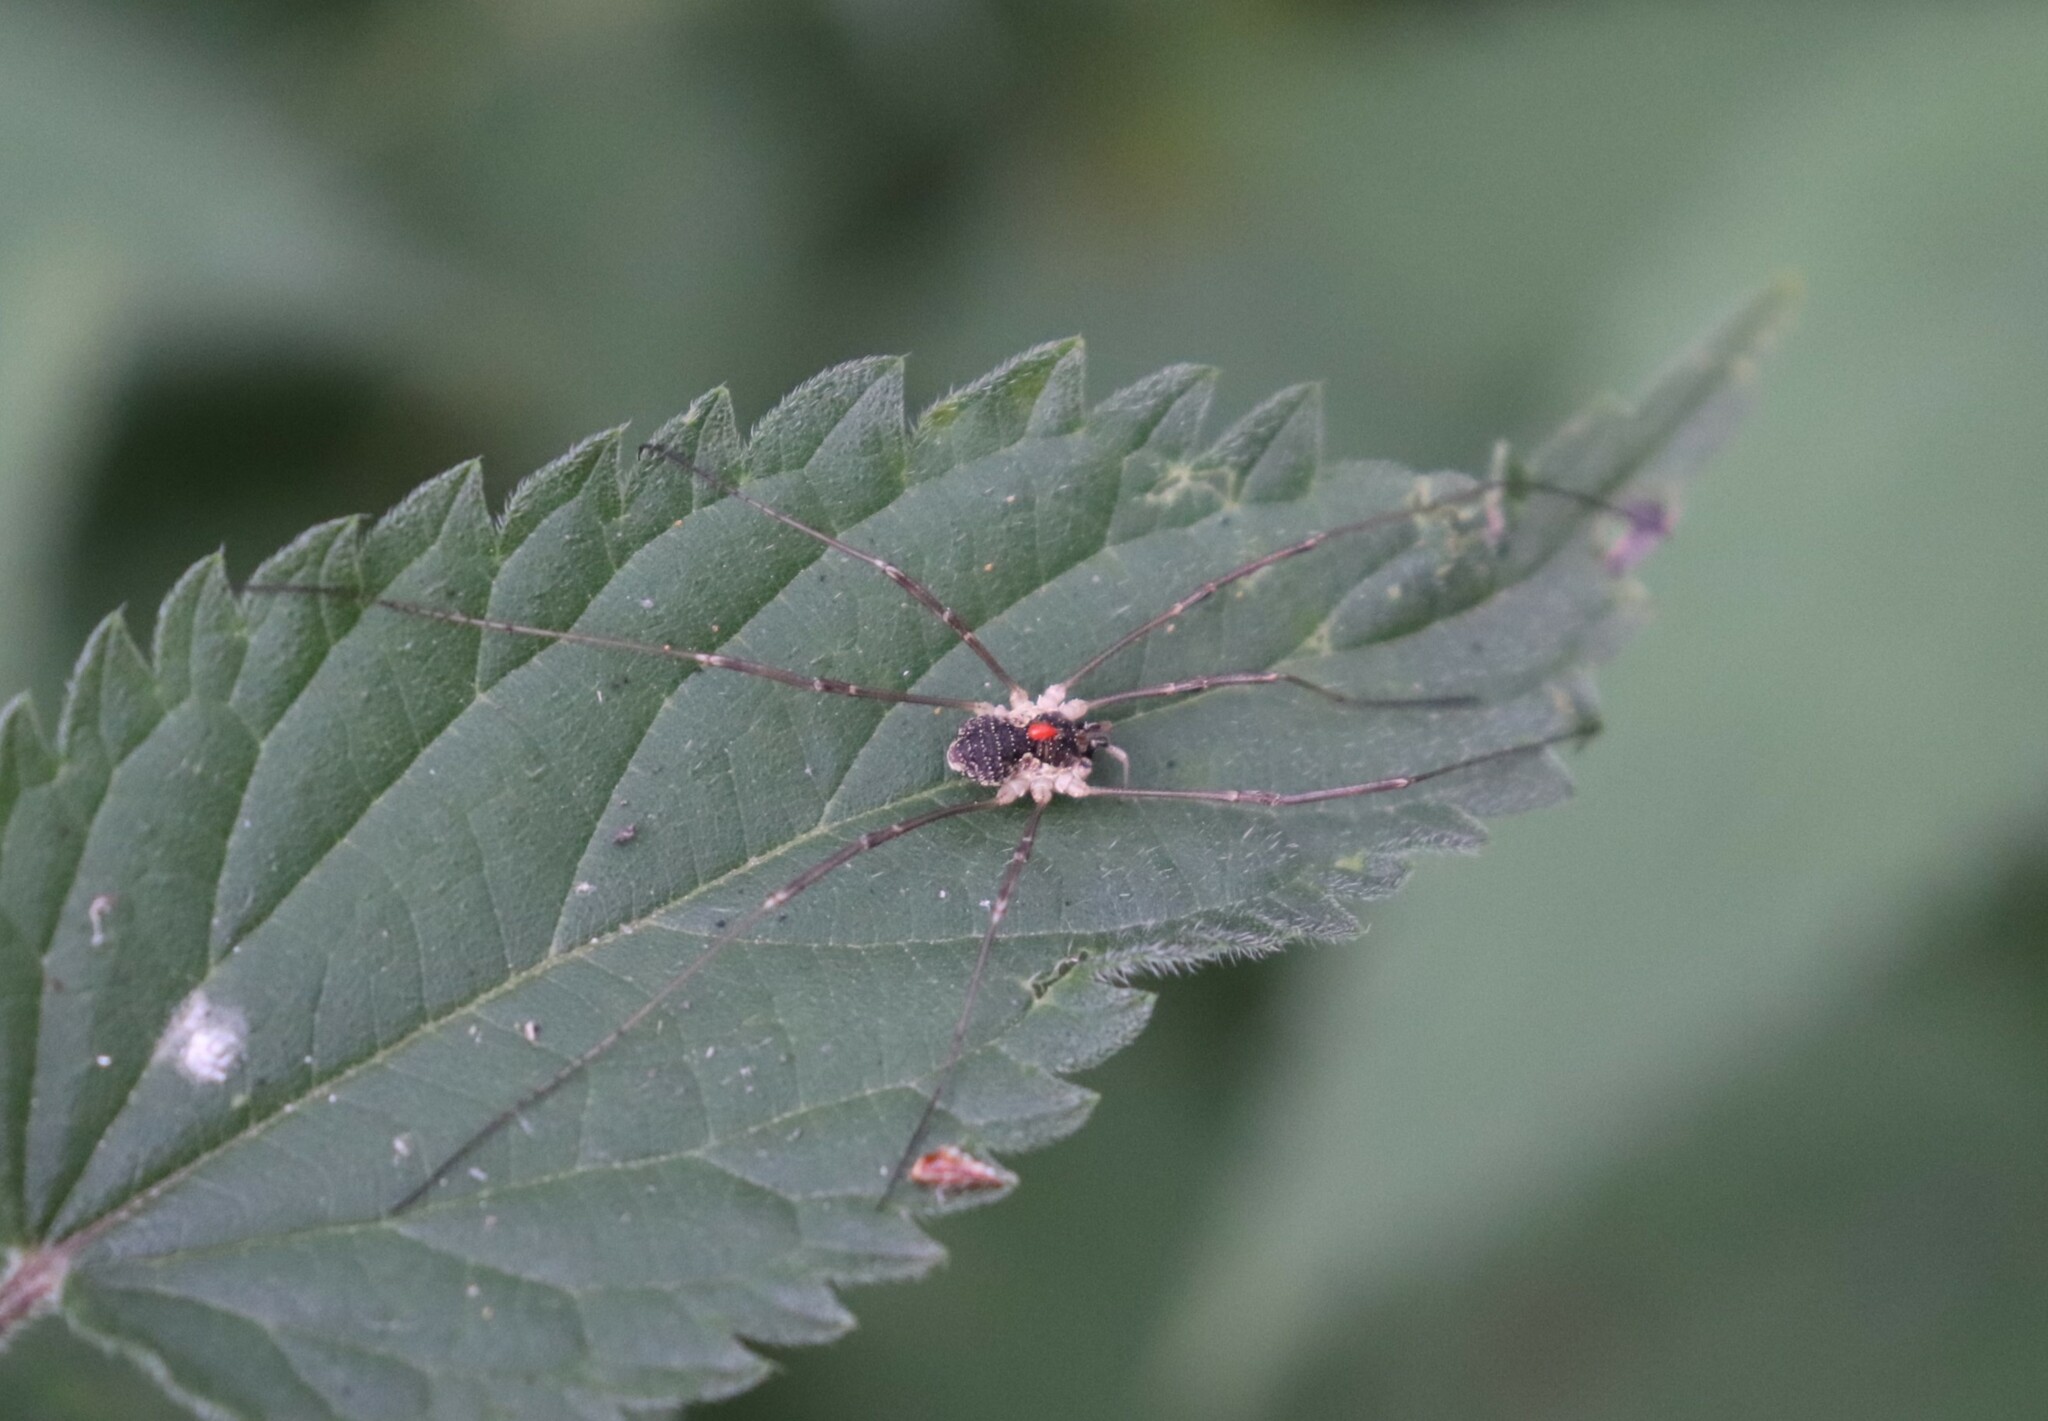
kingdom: Animalia
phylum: Arthropoda
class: Arachnida
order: Opiliones
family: Phalangiidae
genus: Mitopus
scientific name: Mitopus morio
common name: Saddleback harvestman
